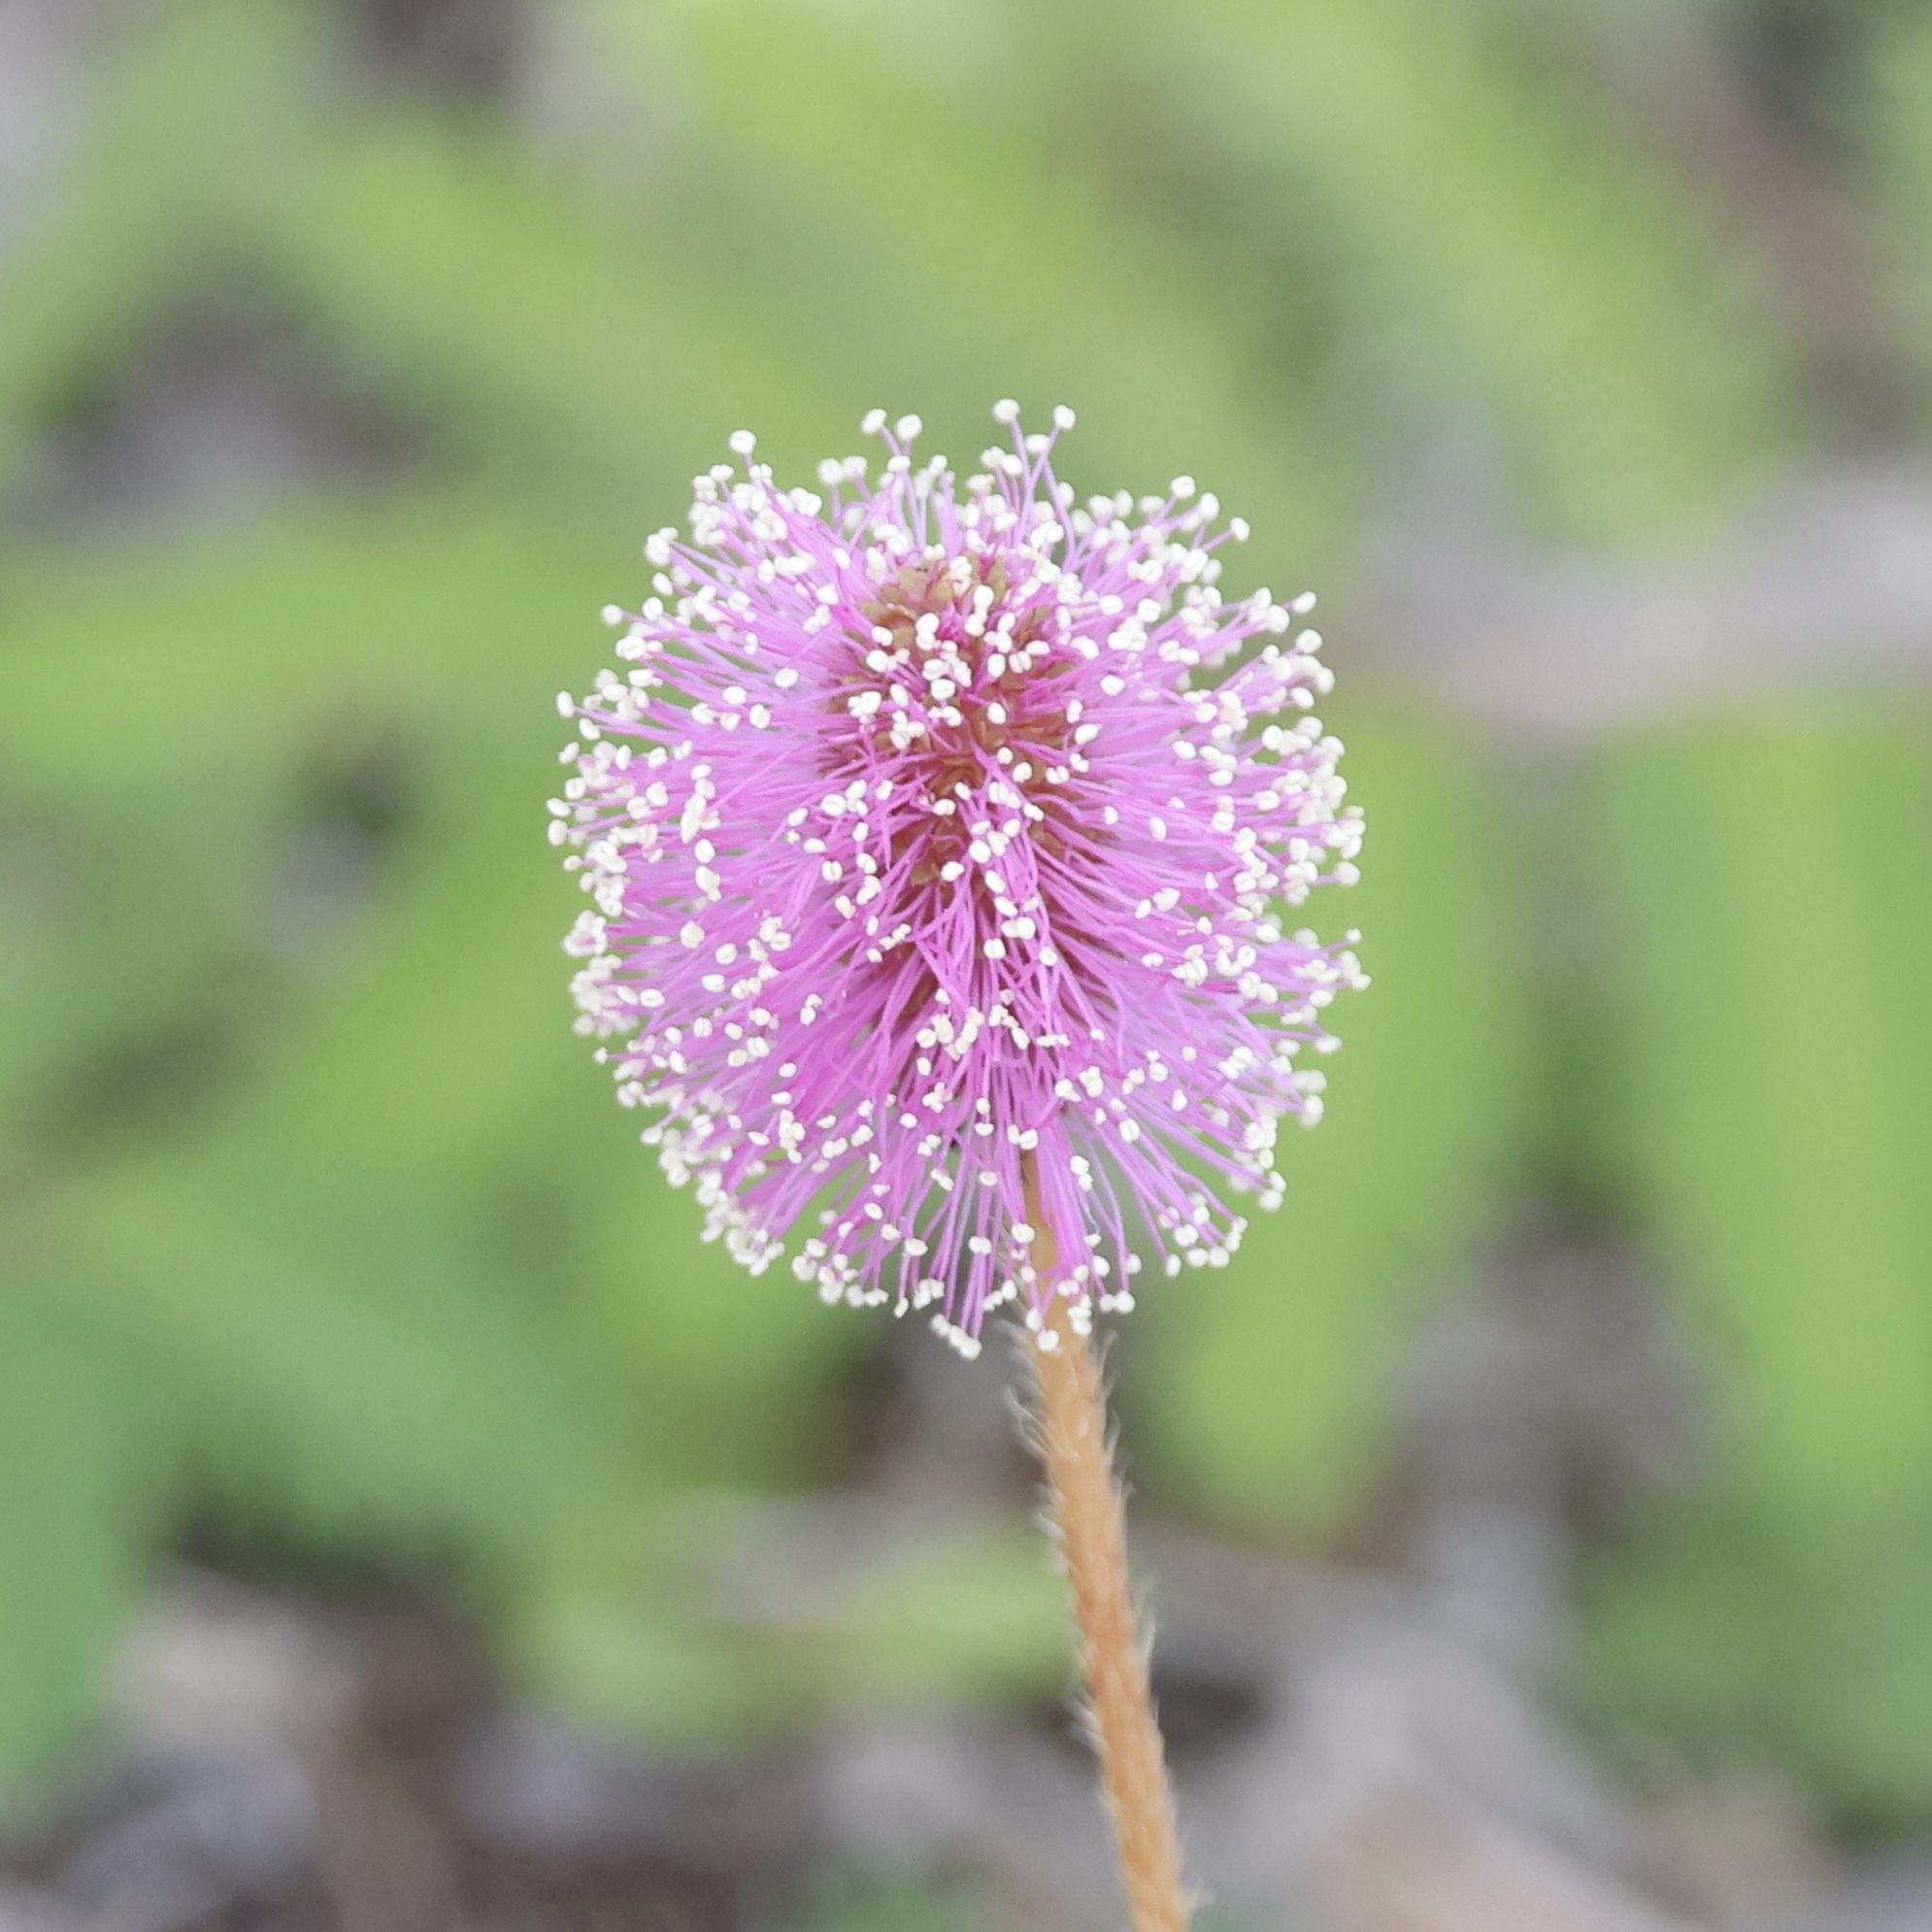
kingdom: Plantae
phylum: Tracheophyta
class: Magnoliopsida
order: Fabales
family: Fabaceae
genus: Mimosa
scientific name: Mimosa strigillosa
